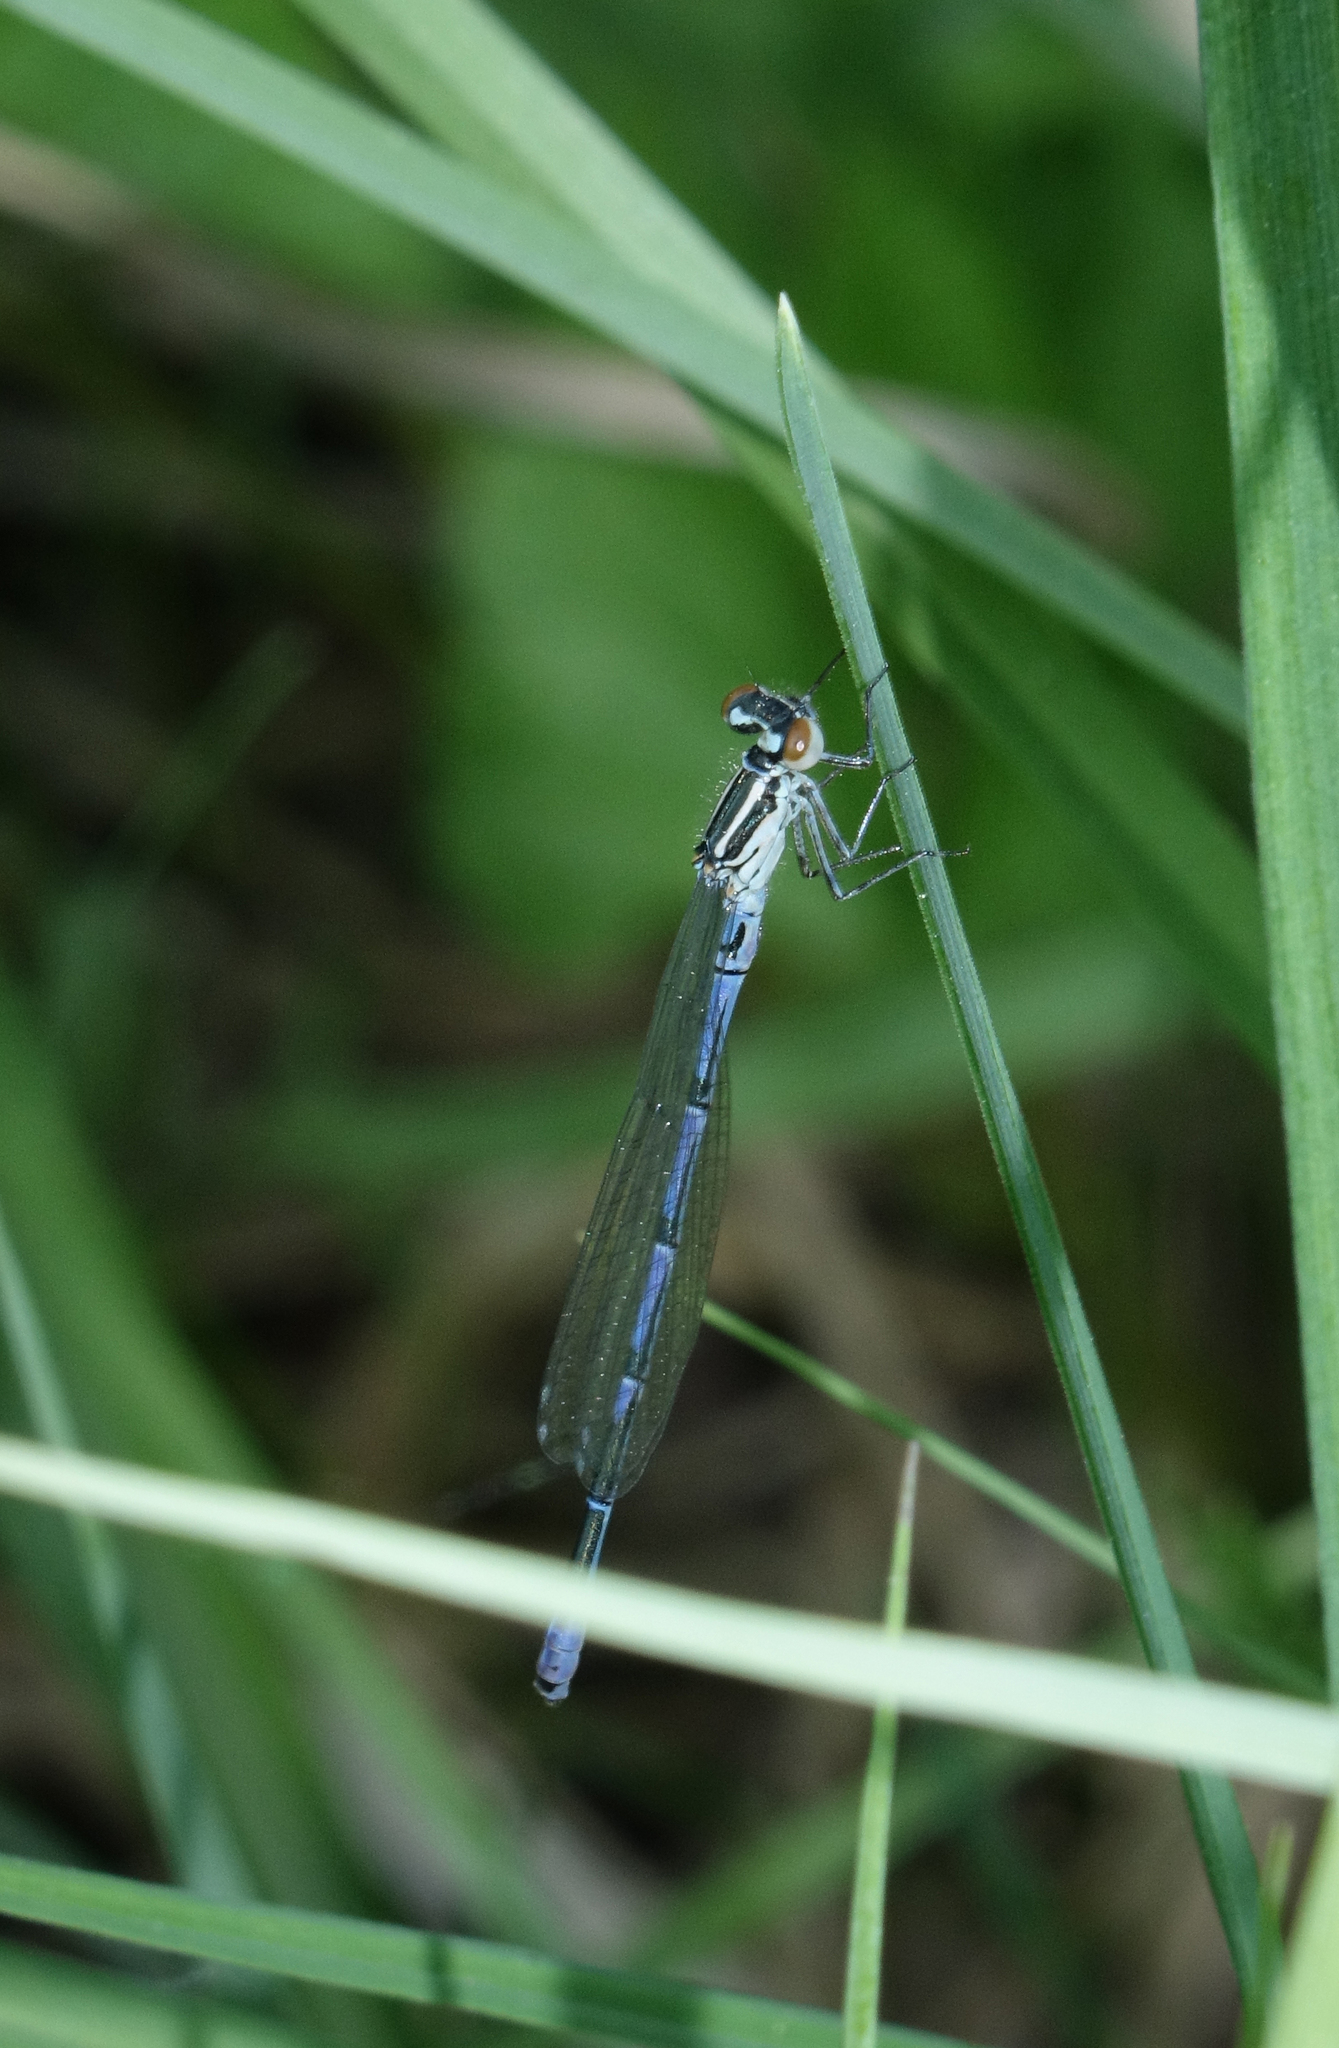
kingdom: Animalia
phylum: Arthropoda
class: Insecta
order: Odonata
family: Coenagrionidae
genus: Coenagrion
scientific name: Coenagrion puella
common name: Azure damselfly
